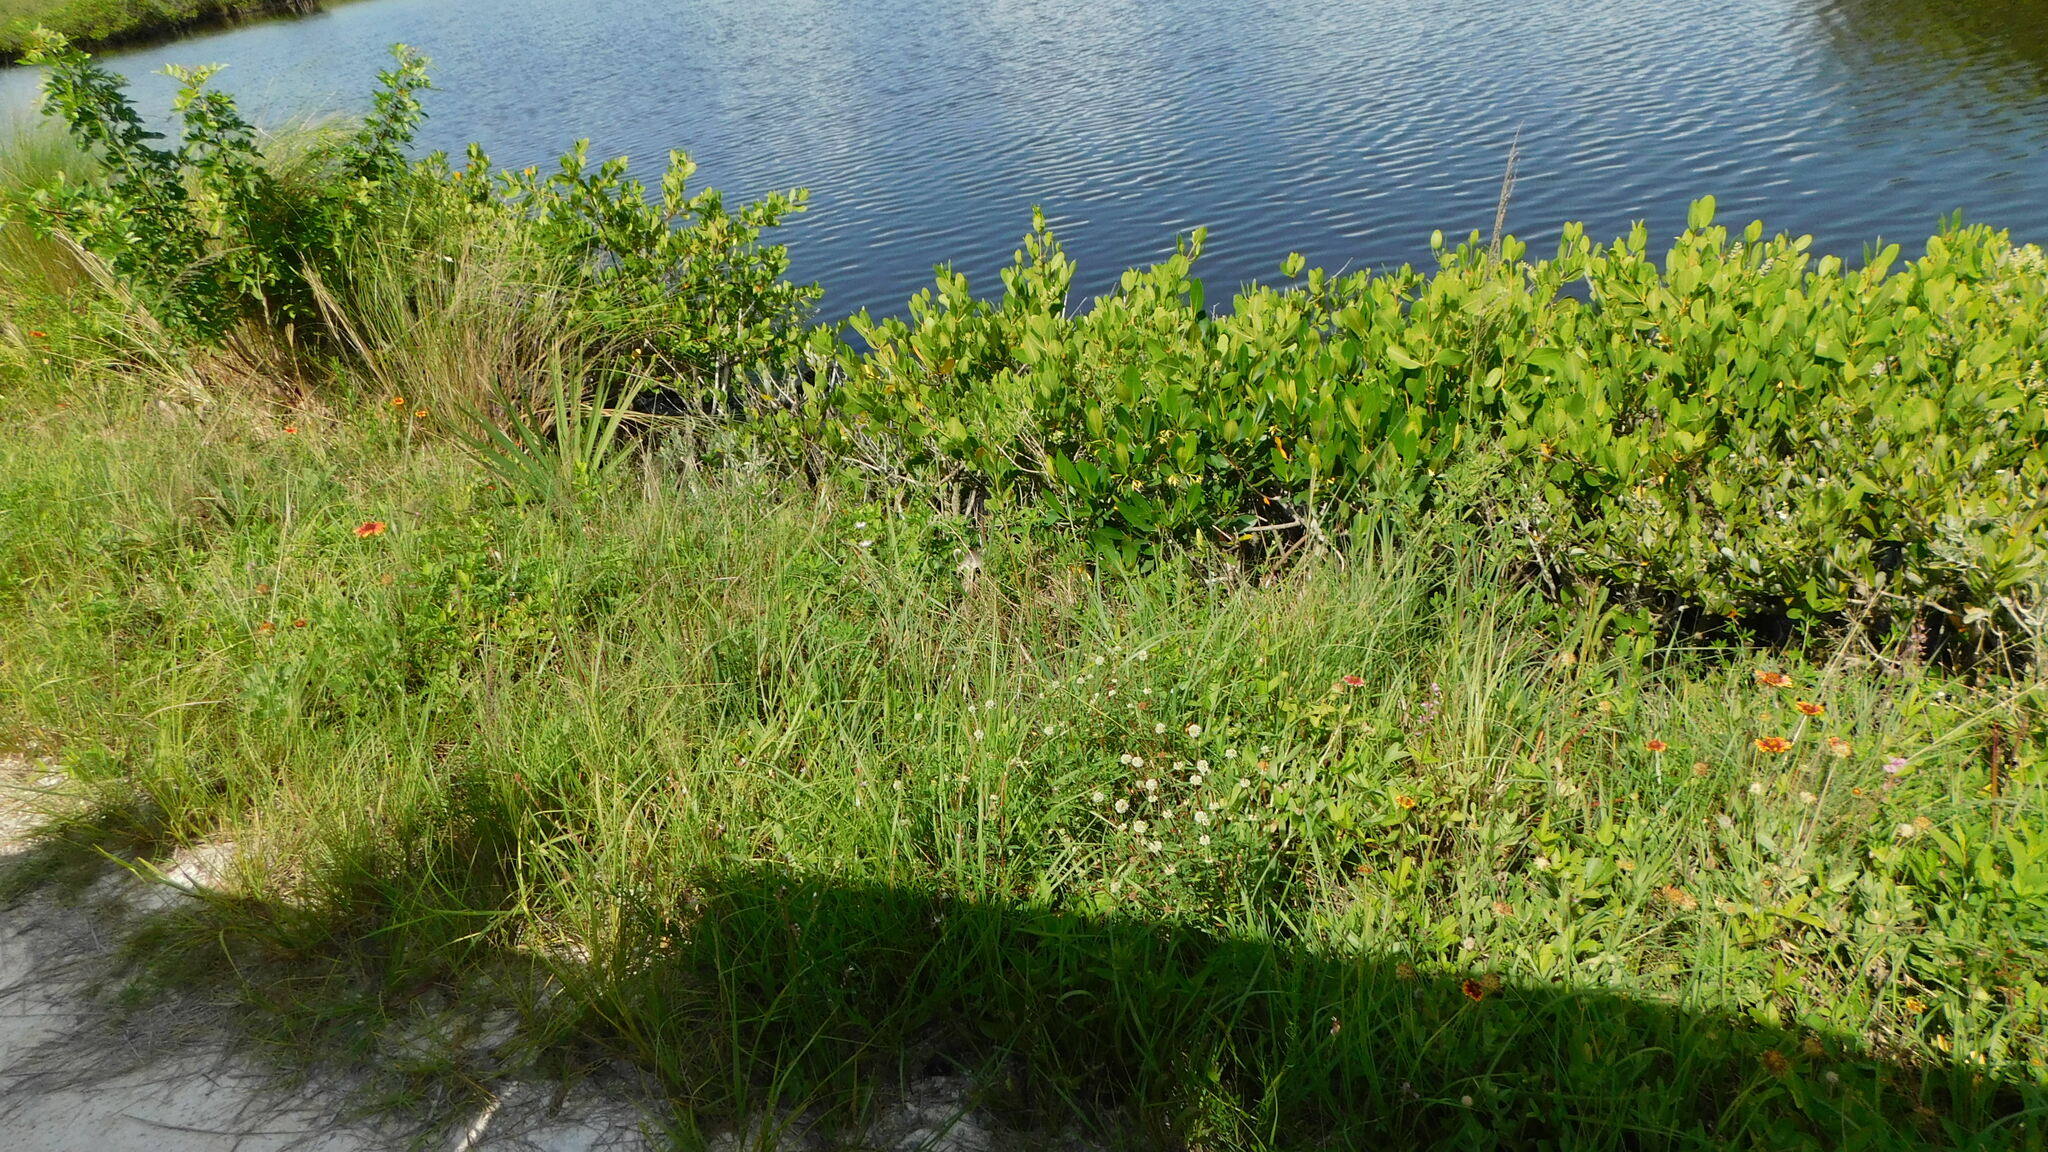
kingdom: Animalia
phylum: Chordata
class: Mammalia
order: Carnivora
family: Procyonidae
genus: Procyon
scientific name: Procyon lotor
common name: Raccoon
